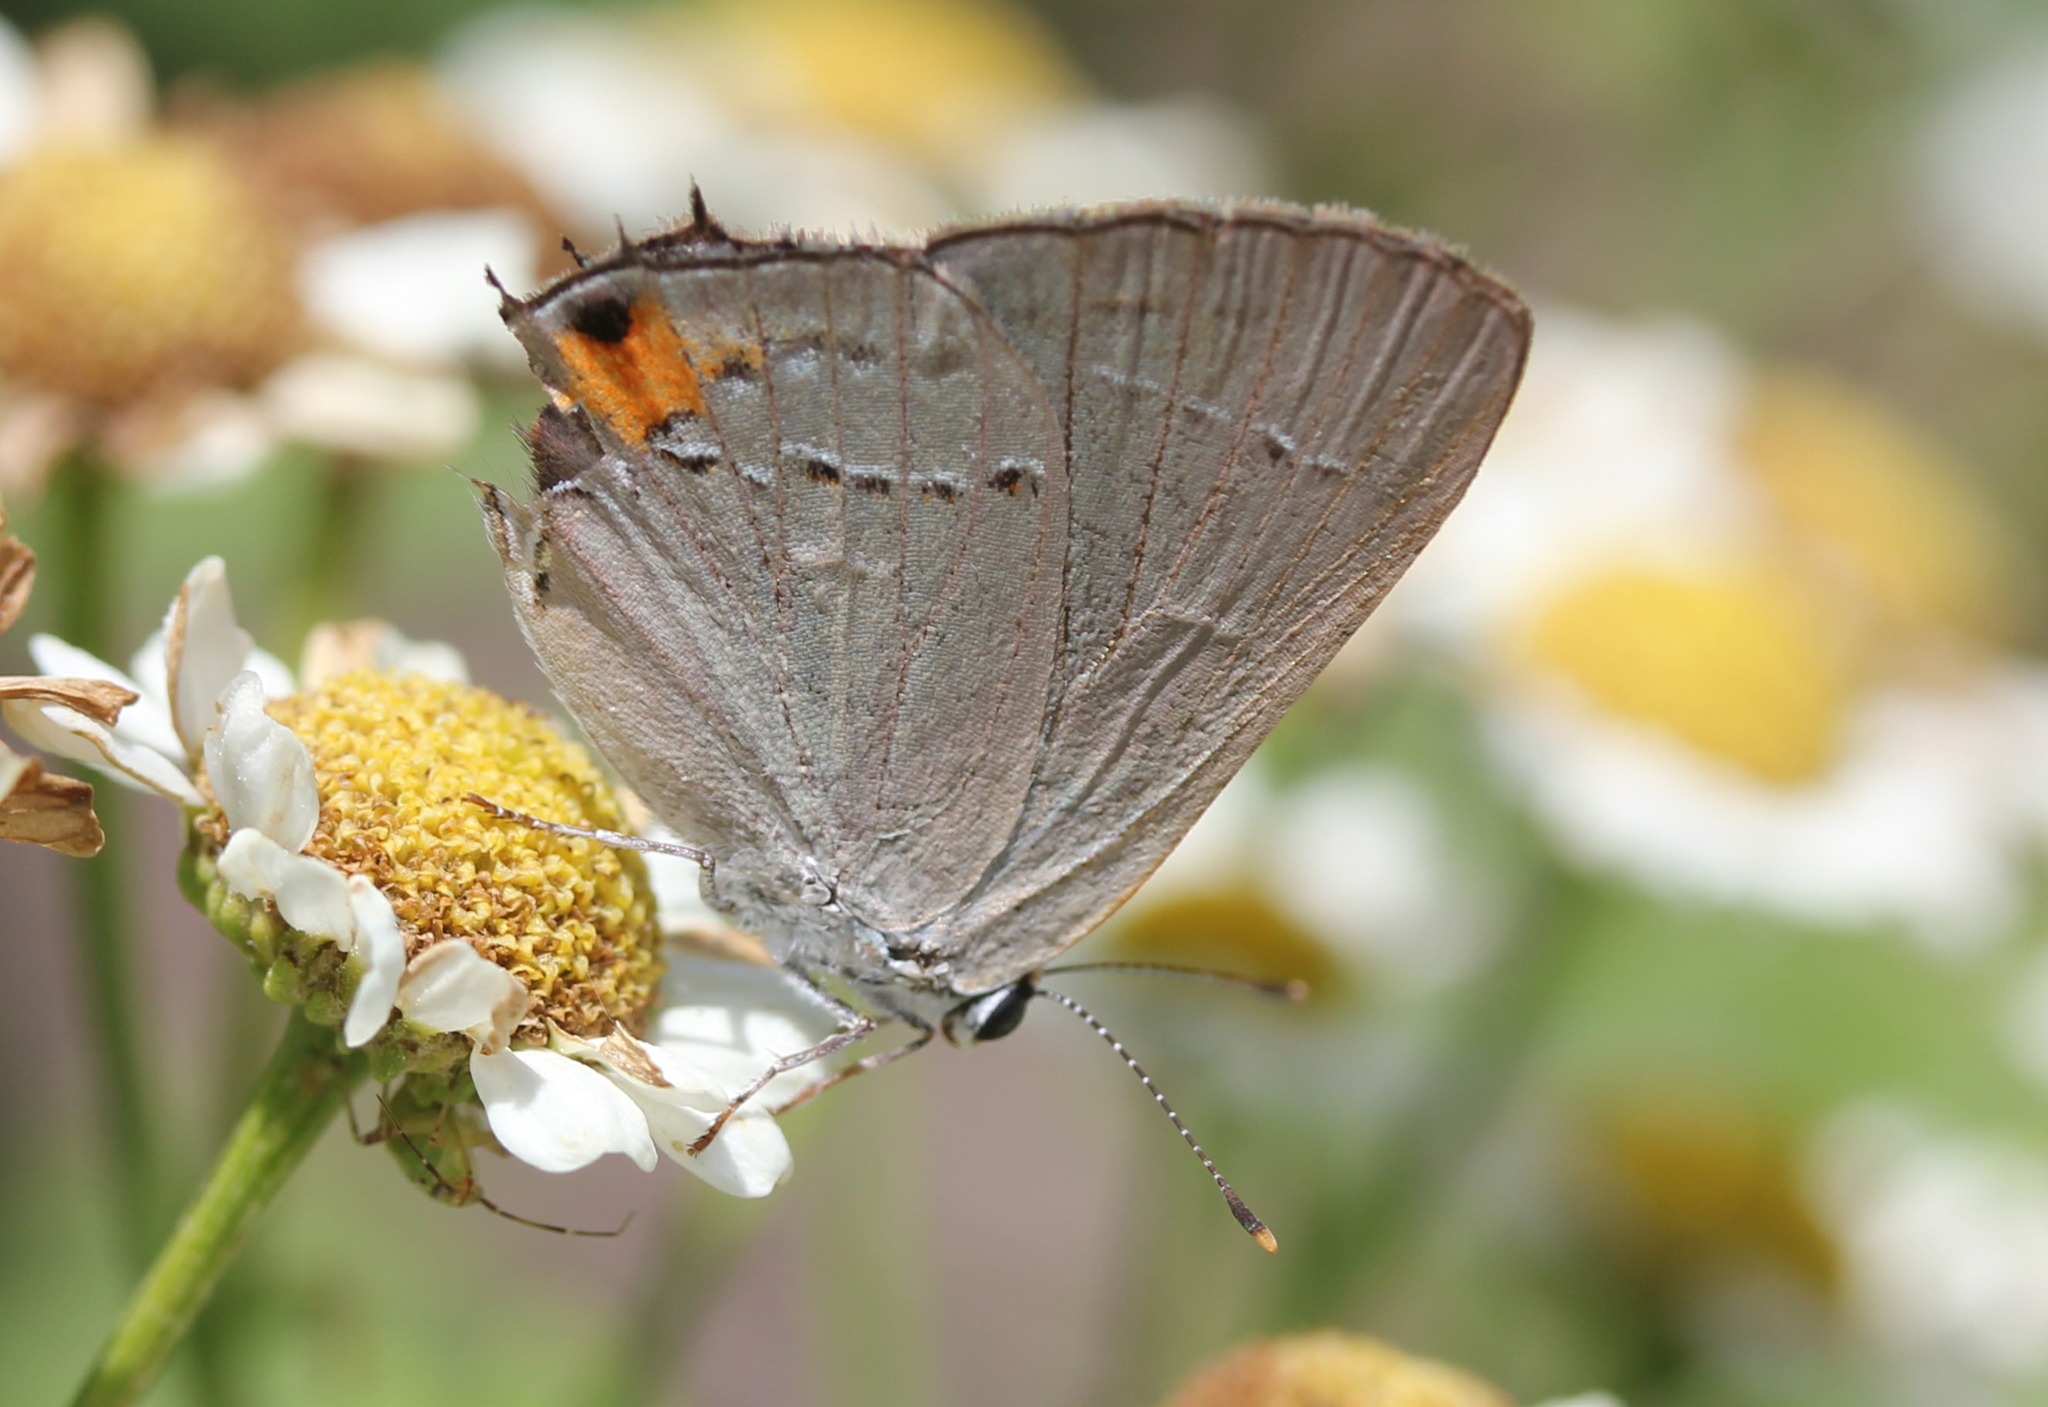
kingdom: Animalia
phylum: Arthropoda
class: Insecta
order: Lepidoptera
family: Lycaenidae
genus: Strymon
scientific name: Strymon melinus
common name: Gray hairstreak
